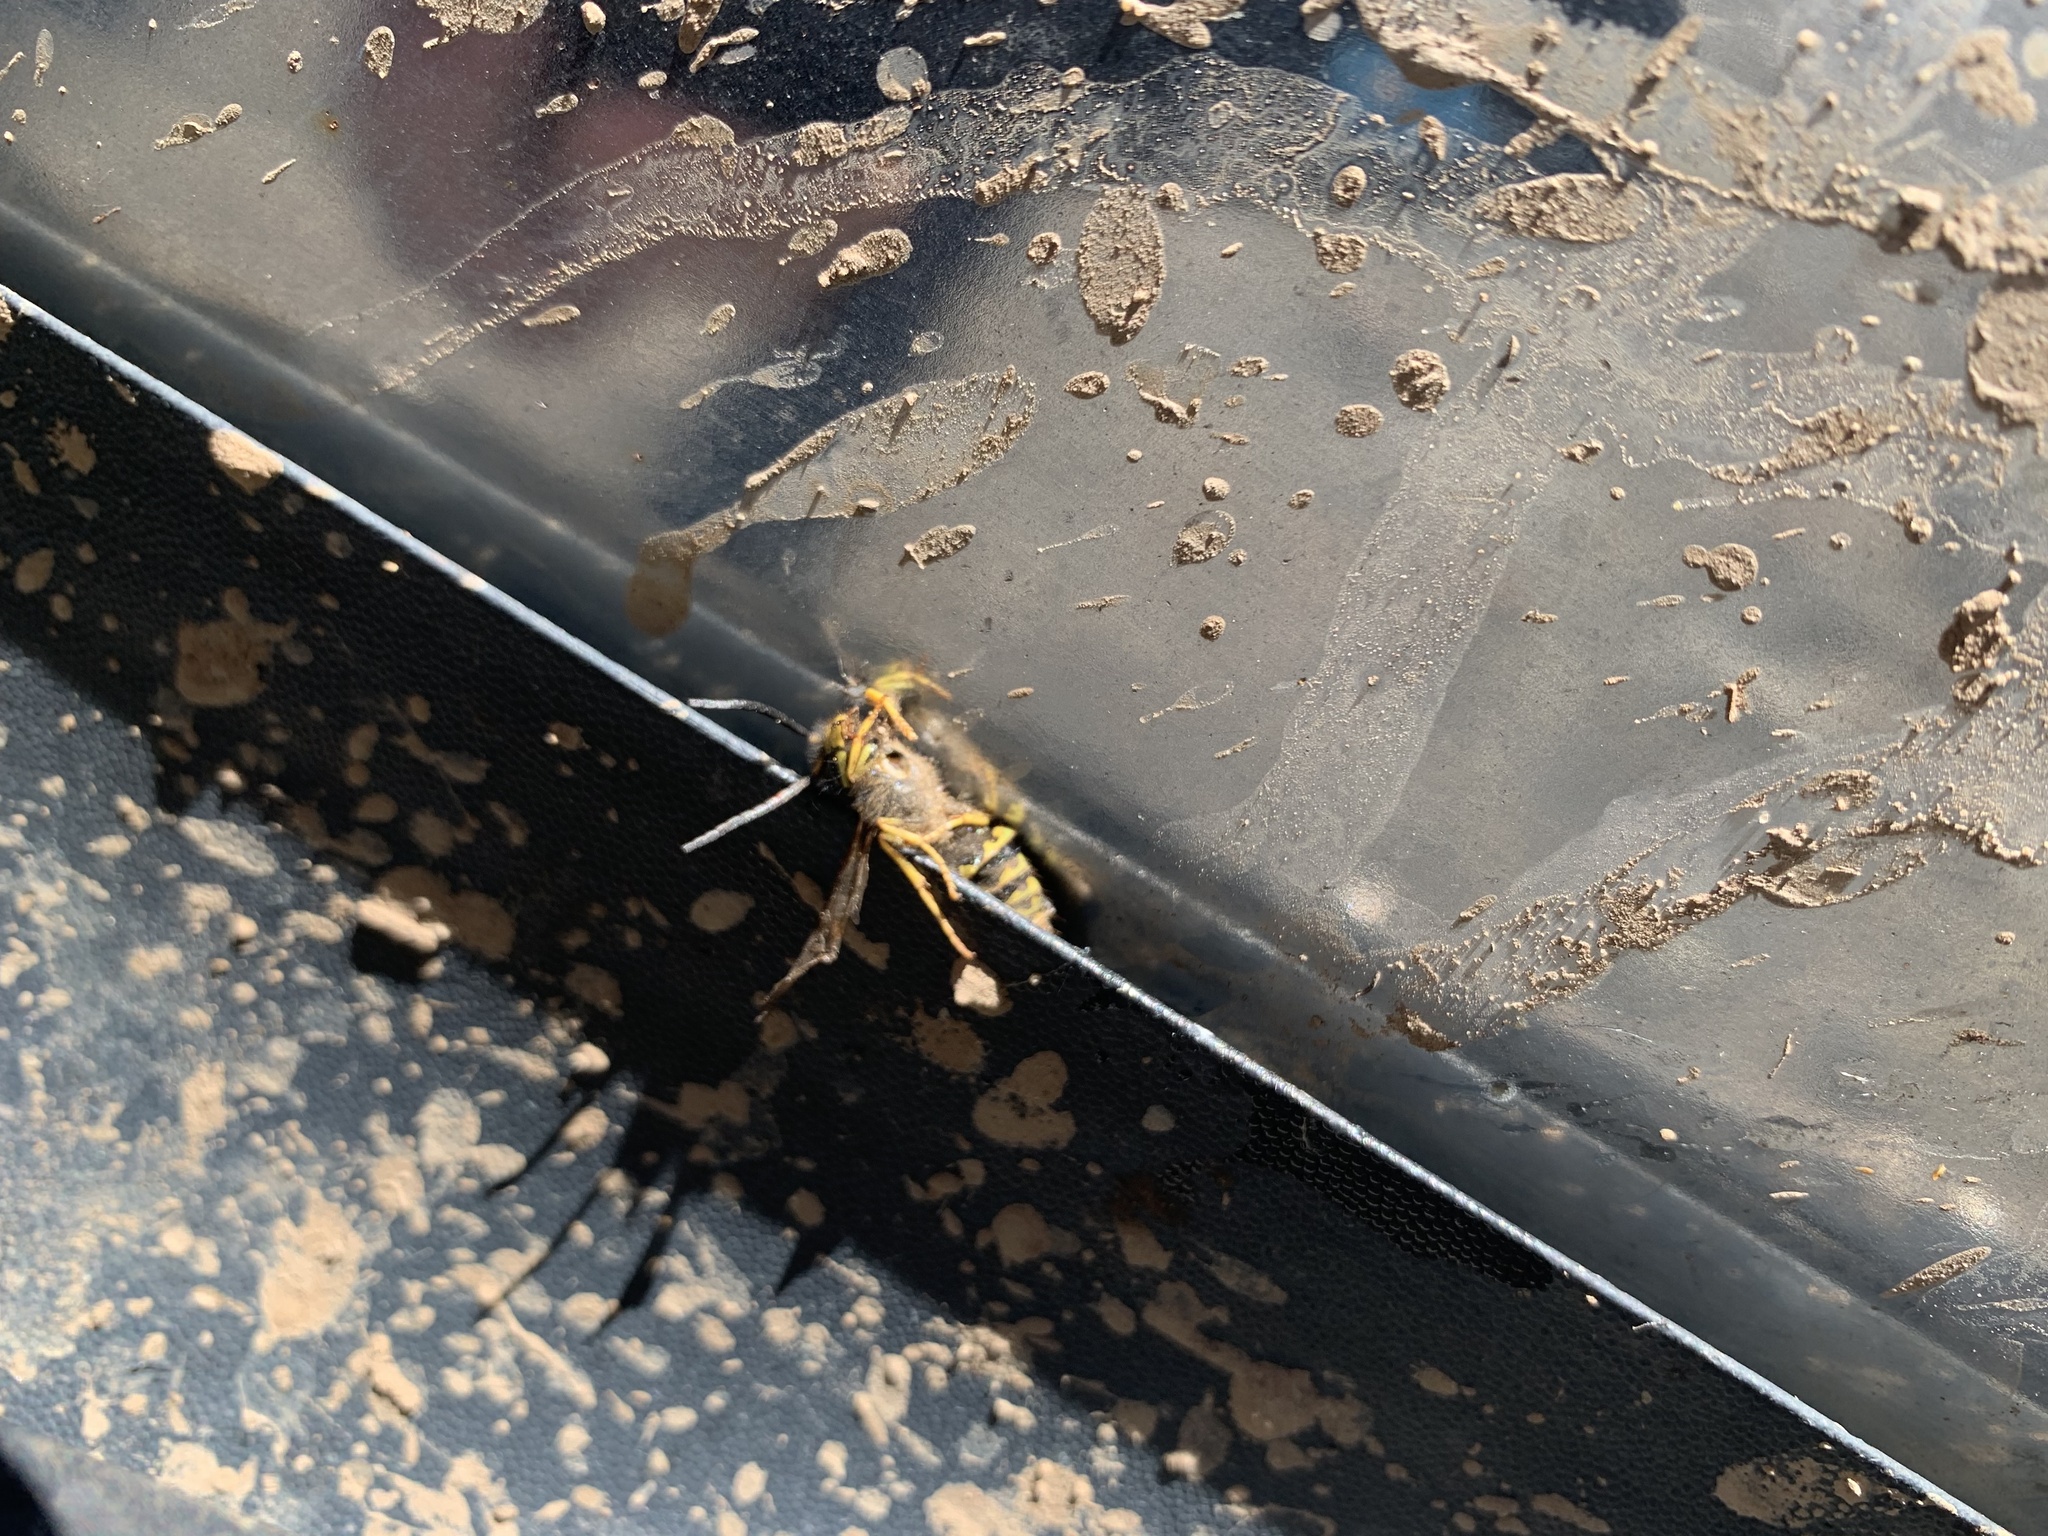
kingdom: Animalia
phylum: Arthropoda
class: Insecta
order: Hymenoptera
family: Vespidae
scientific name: Vespidae
